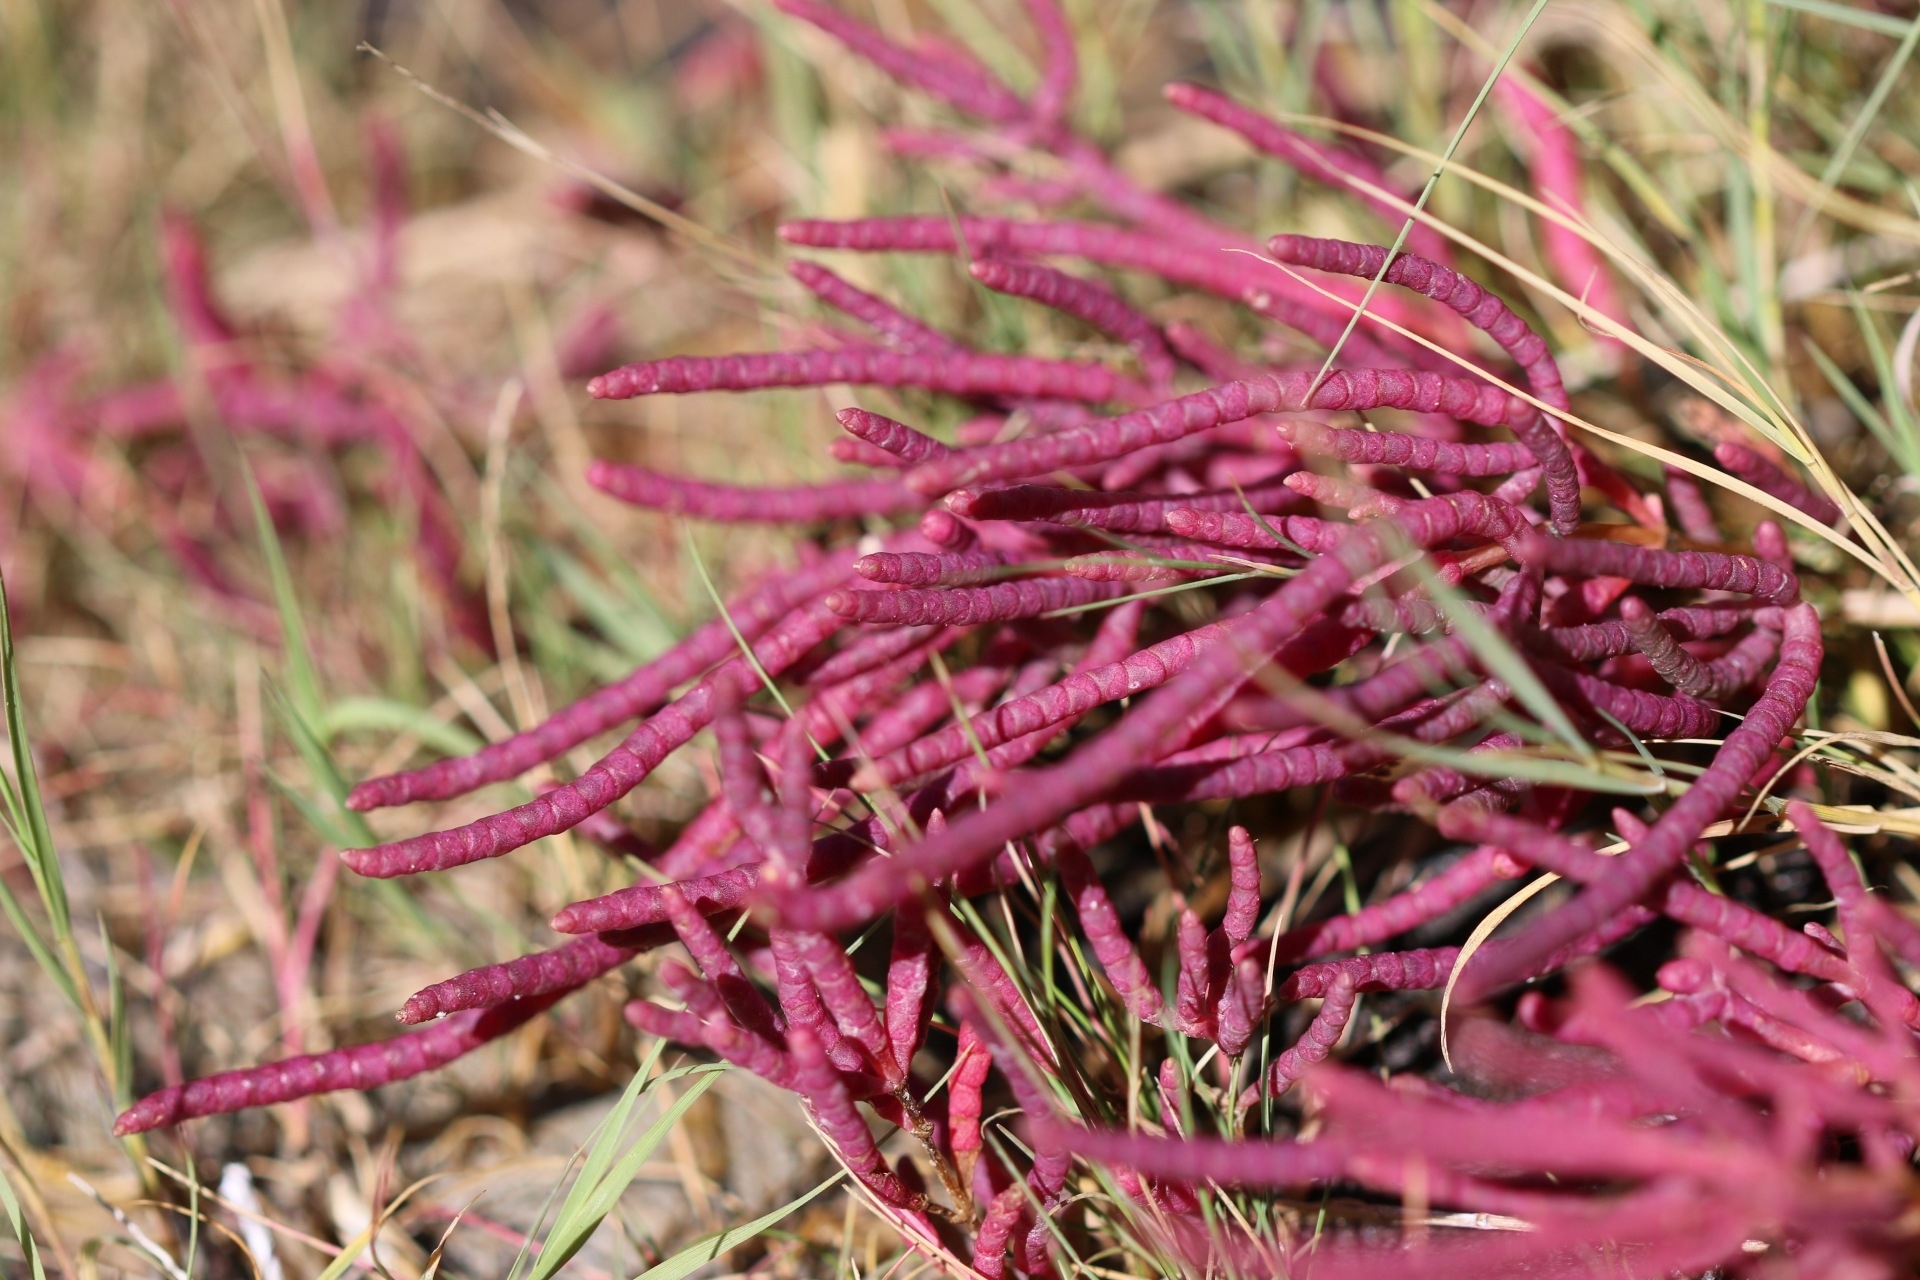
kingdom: Plantae
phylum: Tracheophyta
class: Magnoliopsida
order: Caryophyllales
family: Amaranthaceae
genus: Salicornia
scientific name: Salicornia rubra
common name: Red glasswort
